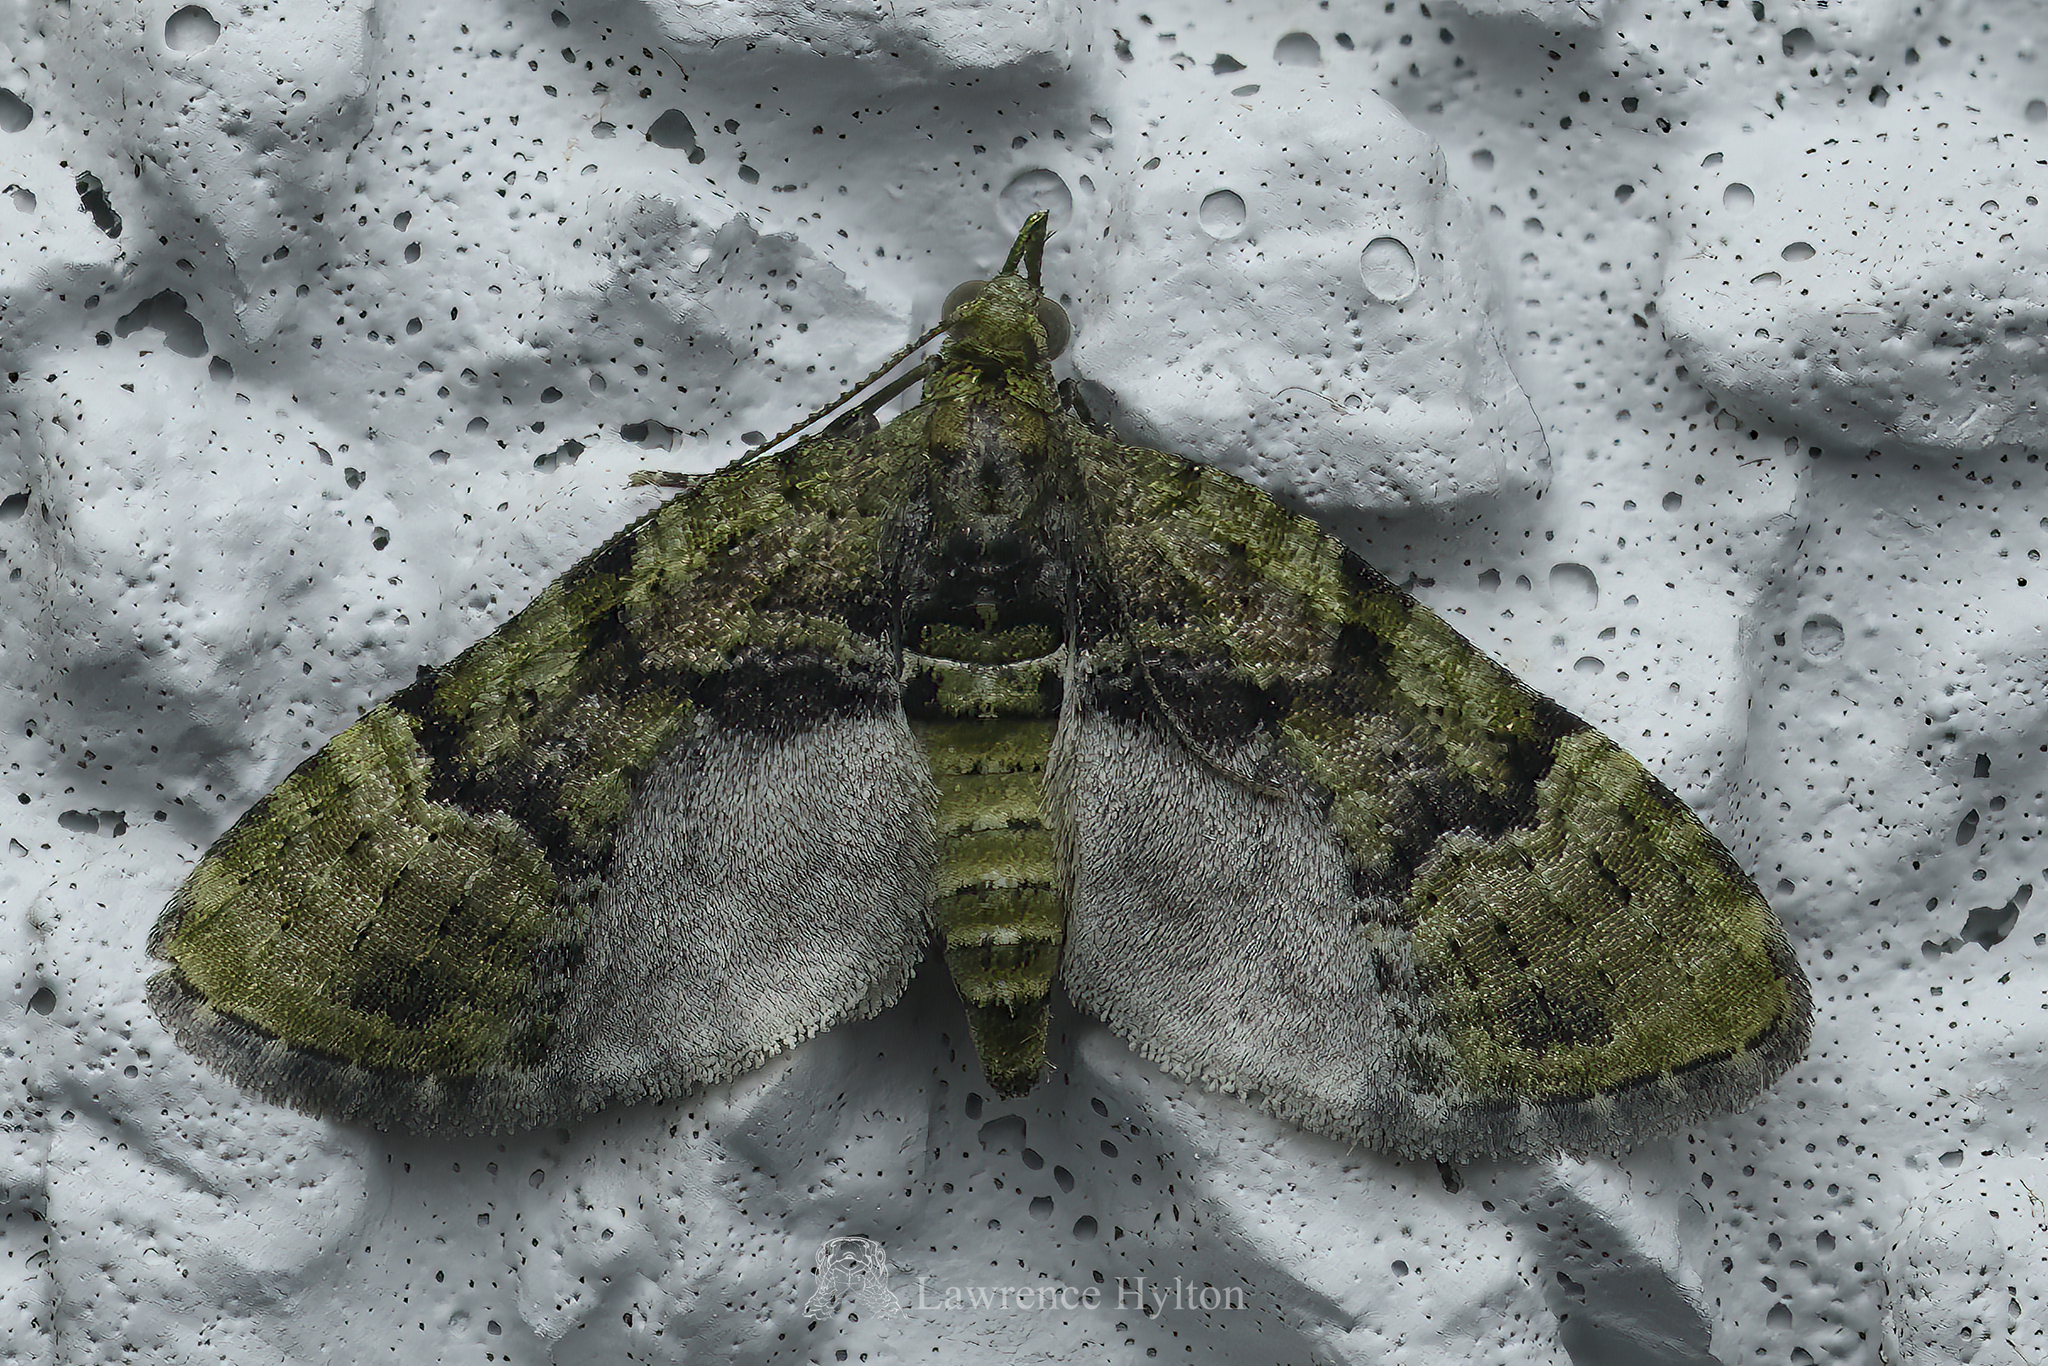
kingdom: Animalia
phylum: Arthropoda
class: Insecta
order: Lepidoptera
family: Geometridae
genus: Chloroclystis
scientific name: Chloroclystis conversa
